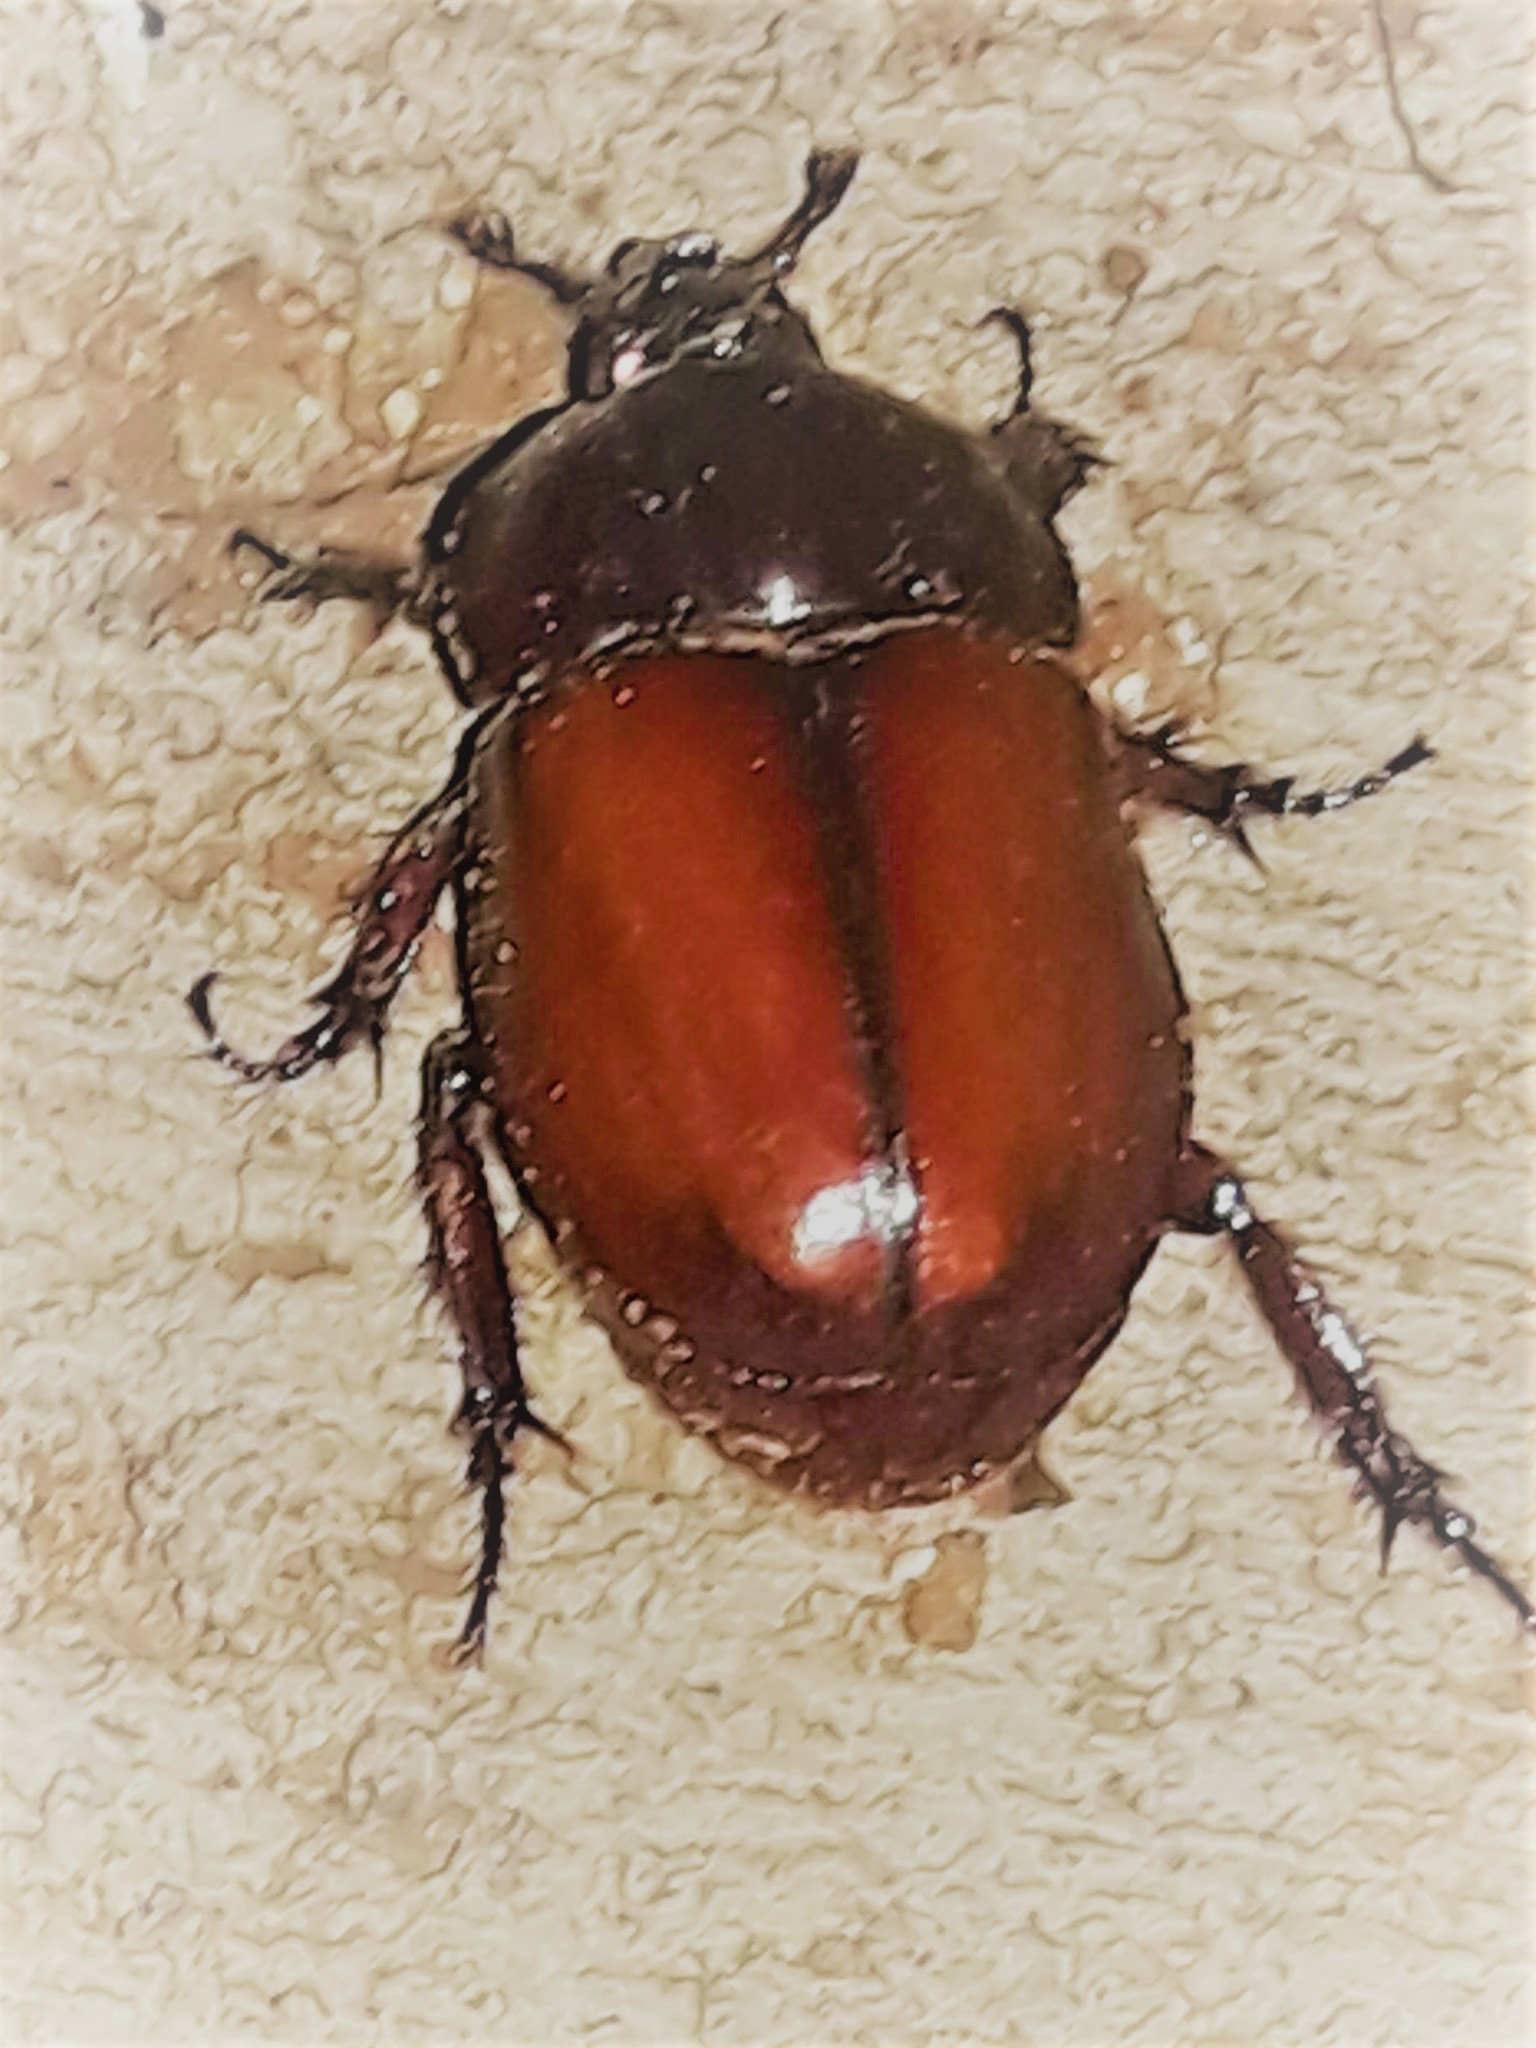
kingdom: Animalia
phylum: Arthropoda
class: Insecta
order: Coleoptera
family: Scarabaeidae
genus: Enema
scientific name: Enema endymion
